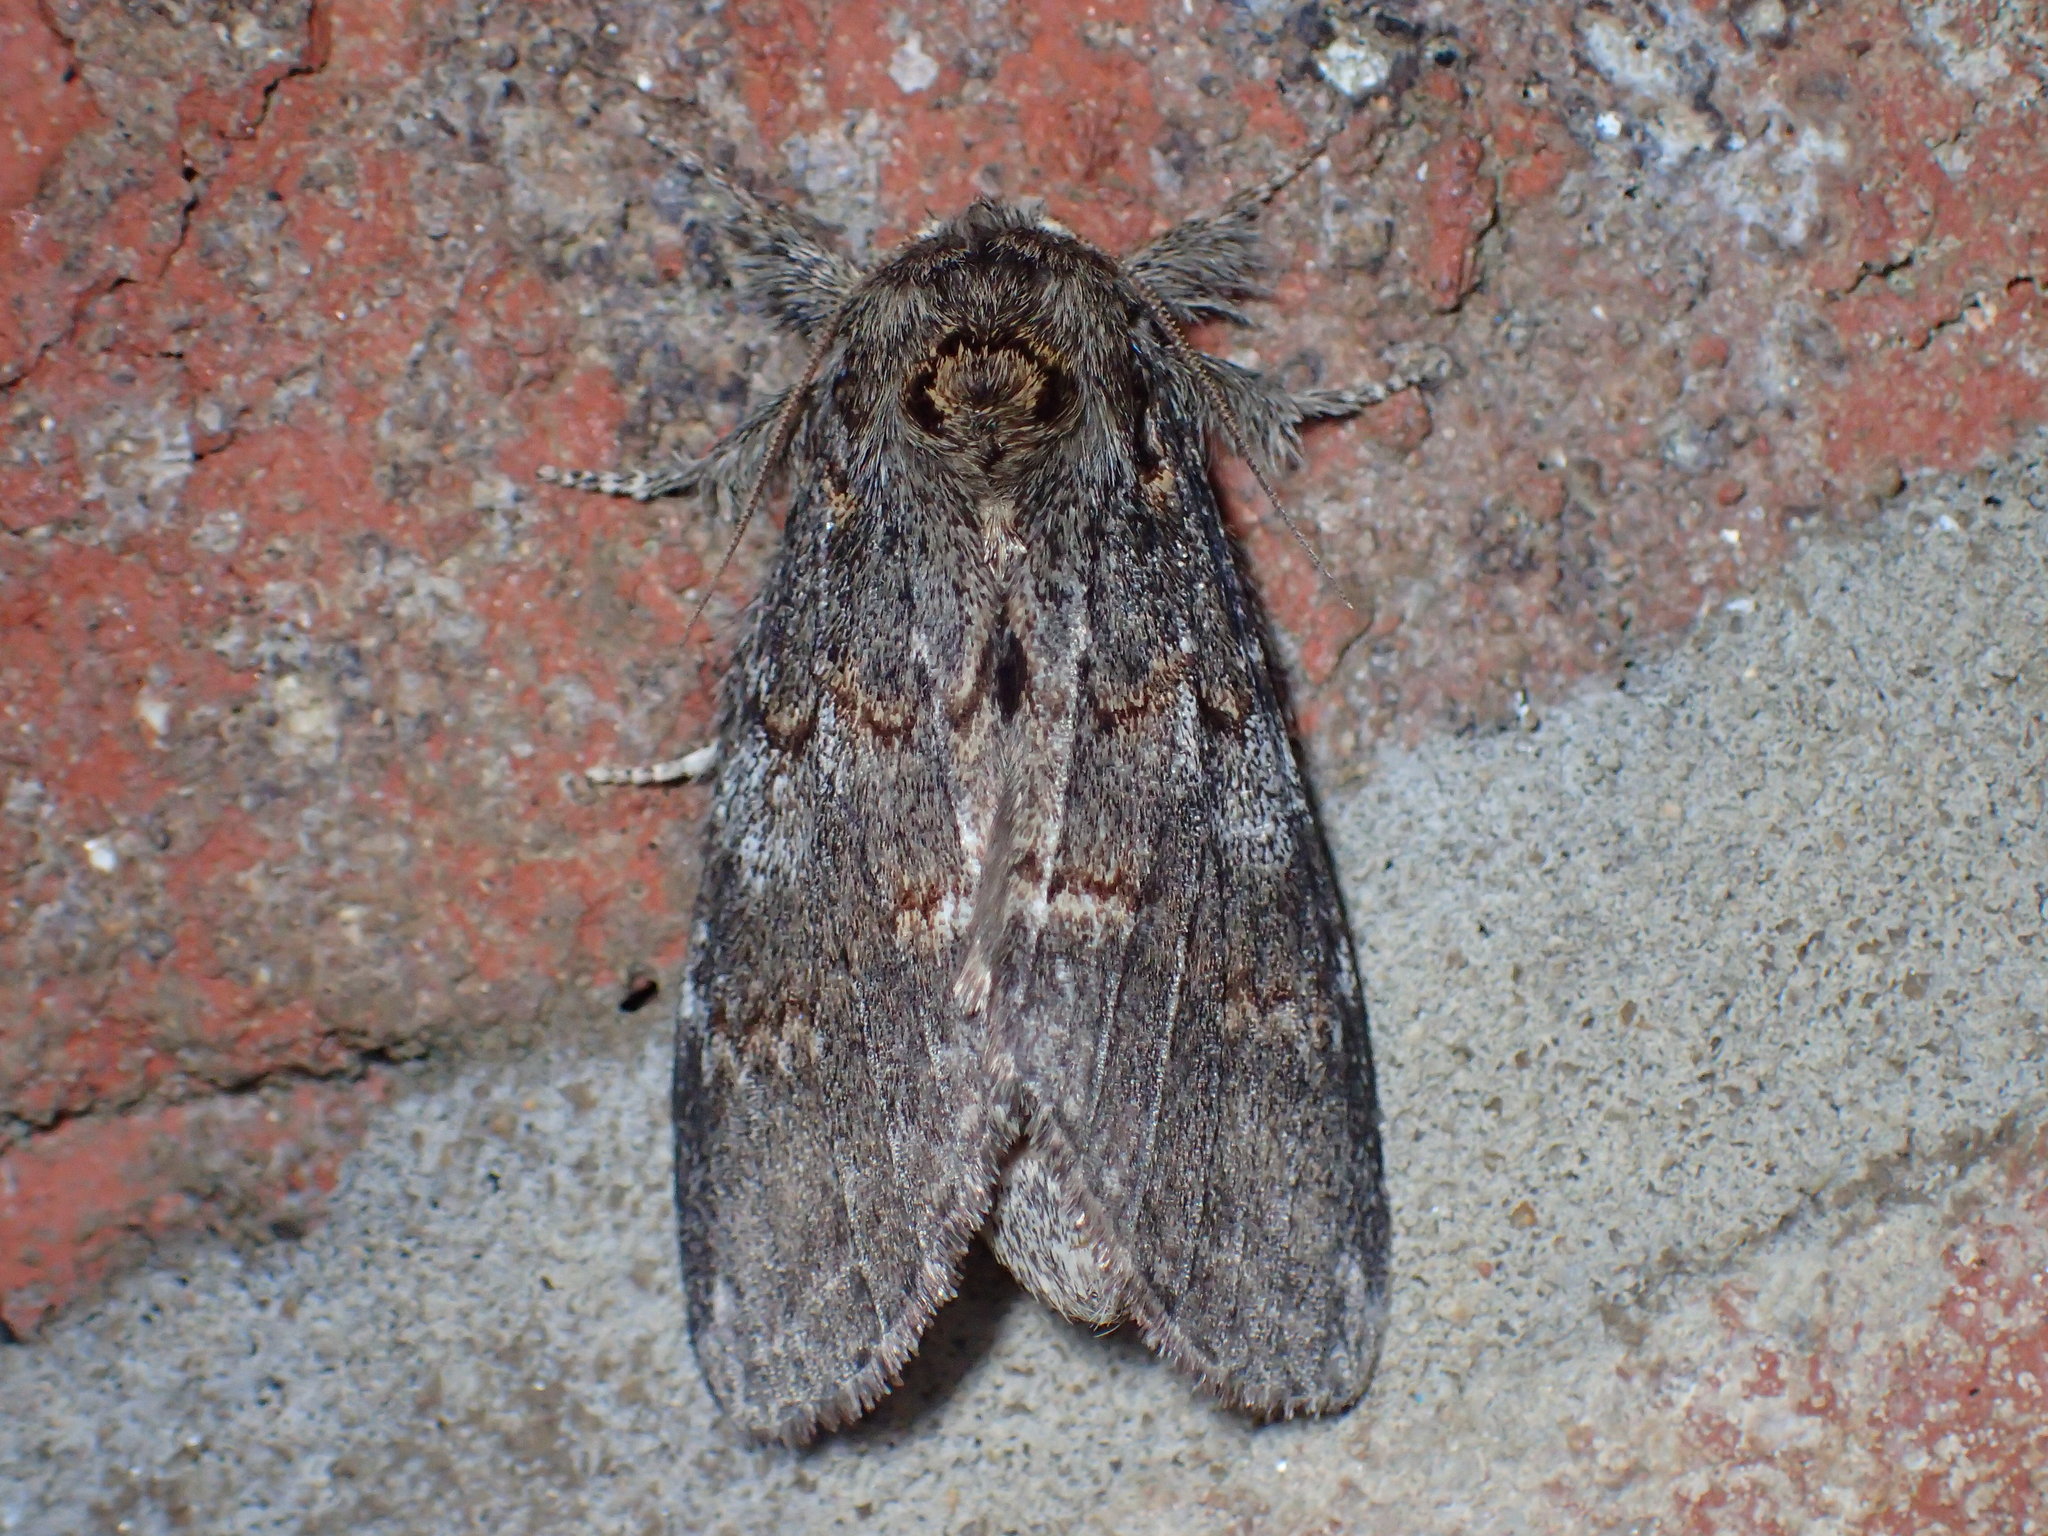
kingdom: Animalia
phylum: Arthropoda
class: Insecta
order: Lepidoptera
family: Notodontidae
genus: Peridea
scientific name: Peridea angulosa
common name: Angulose prominent
